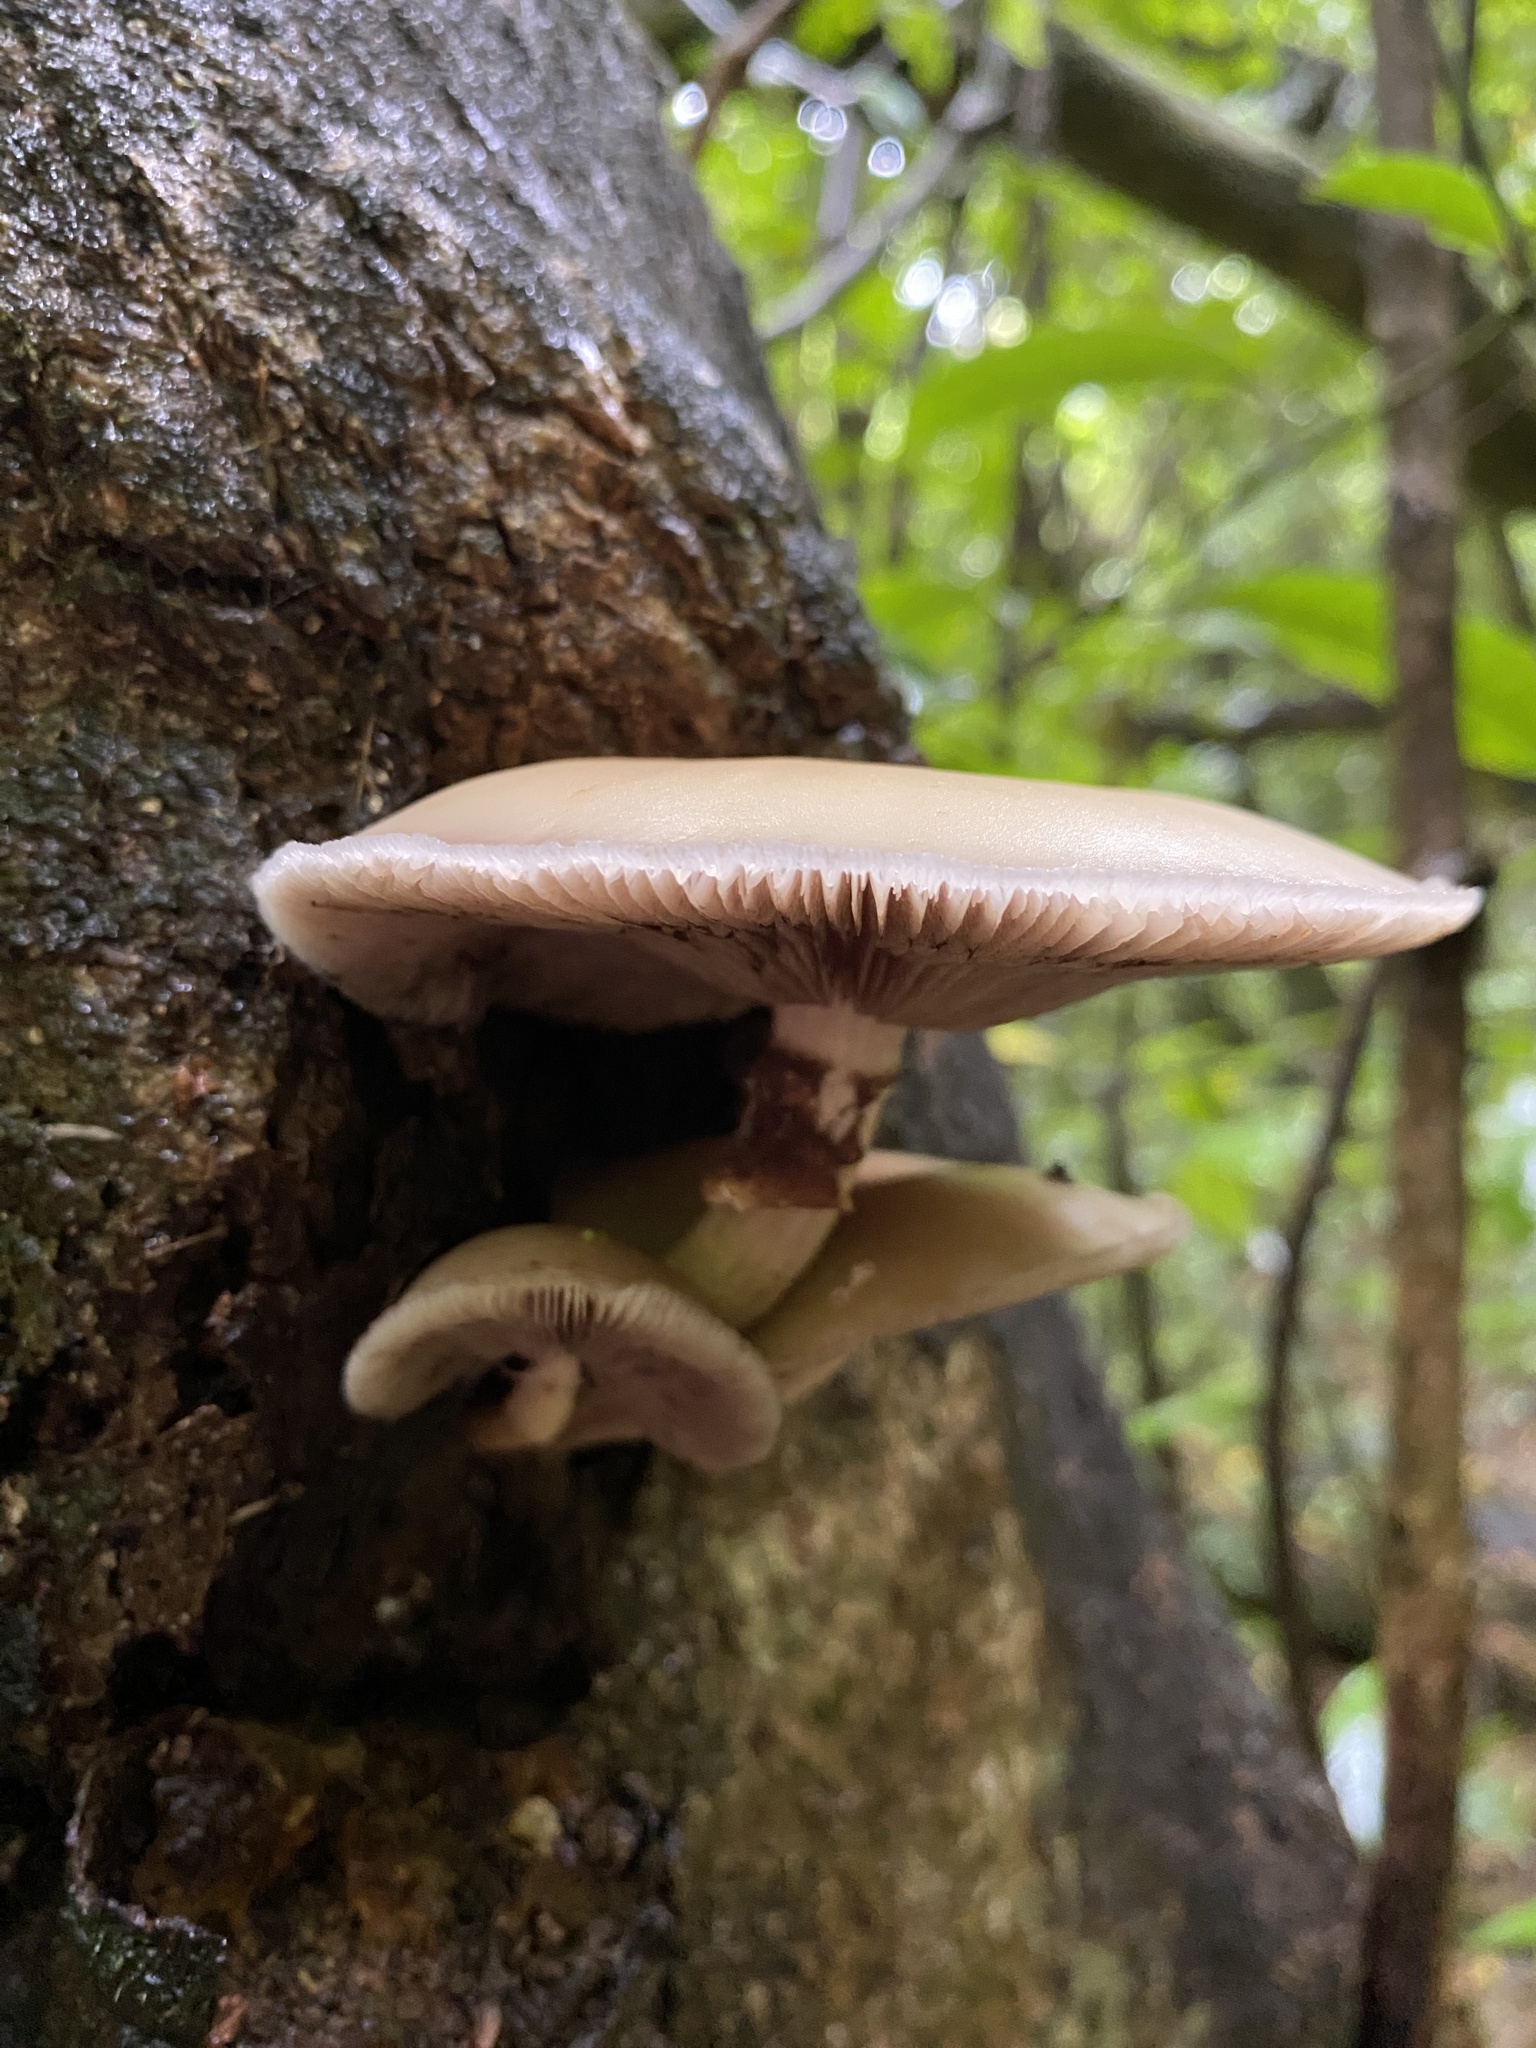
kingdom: Fungi
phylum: Basidiomycota
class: Agaricomycetes
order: Agaricales
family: Tubariaceae
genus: Cyclocybe
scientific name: Cyclocybe parasitica
